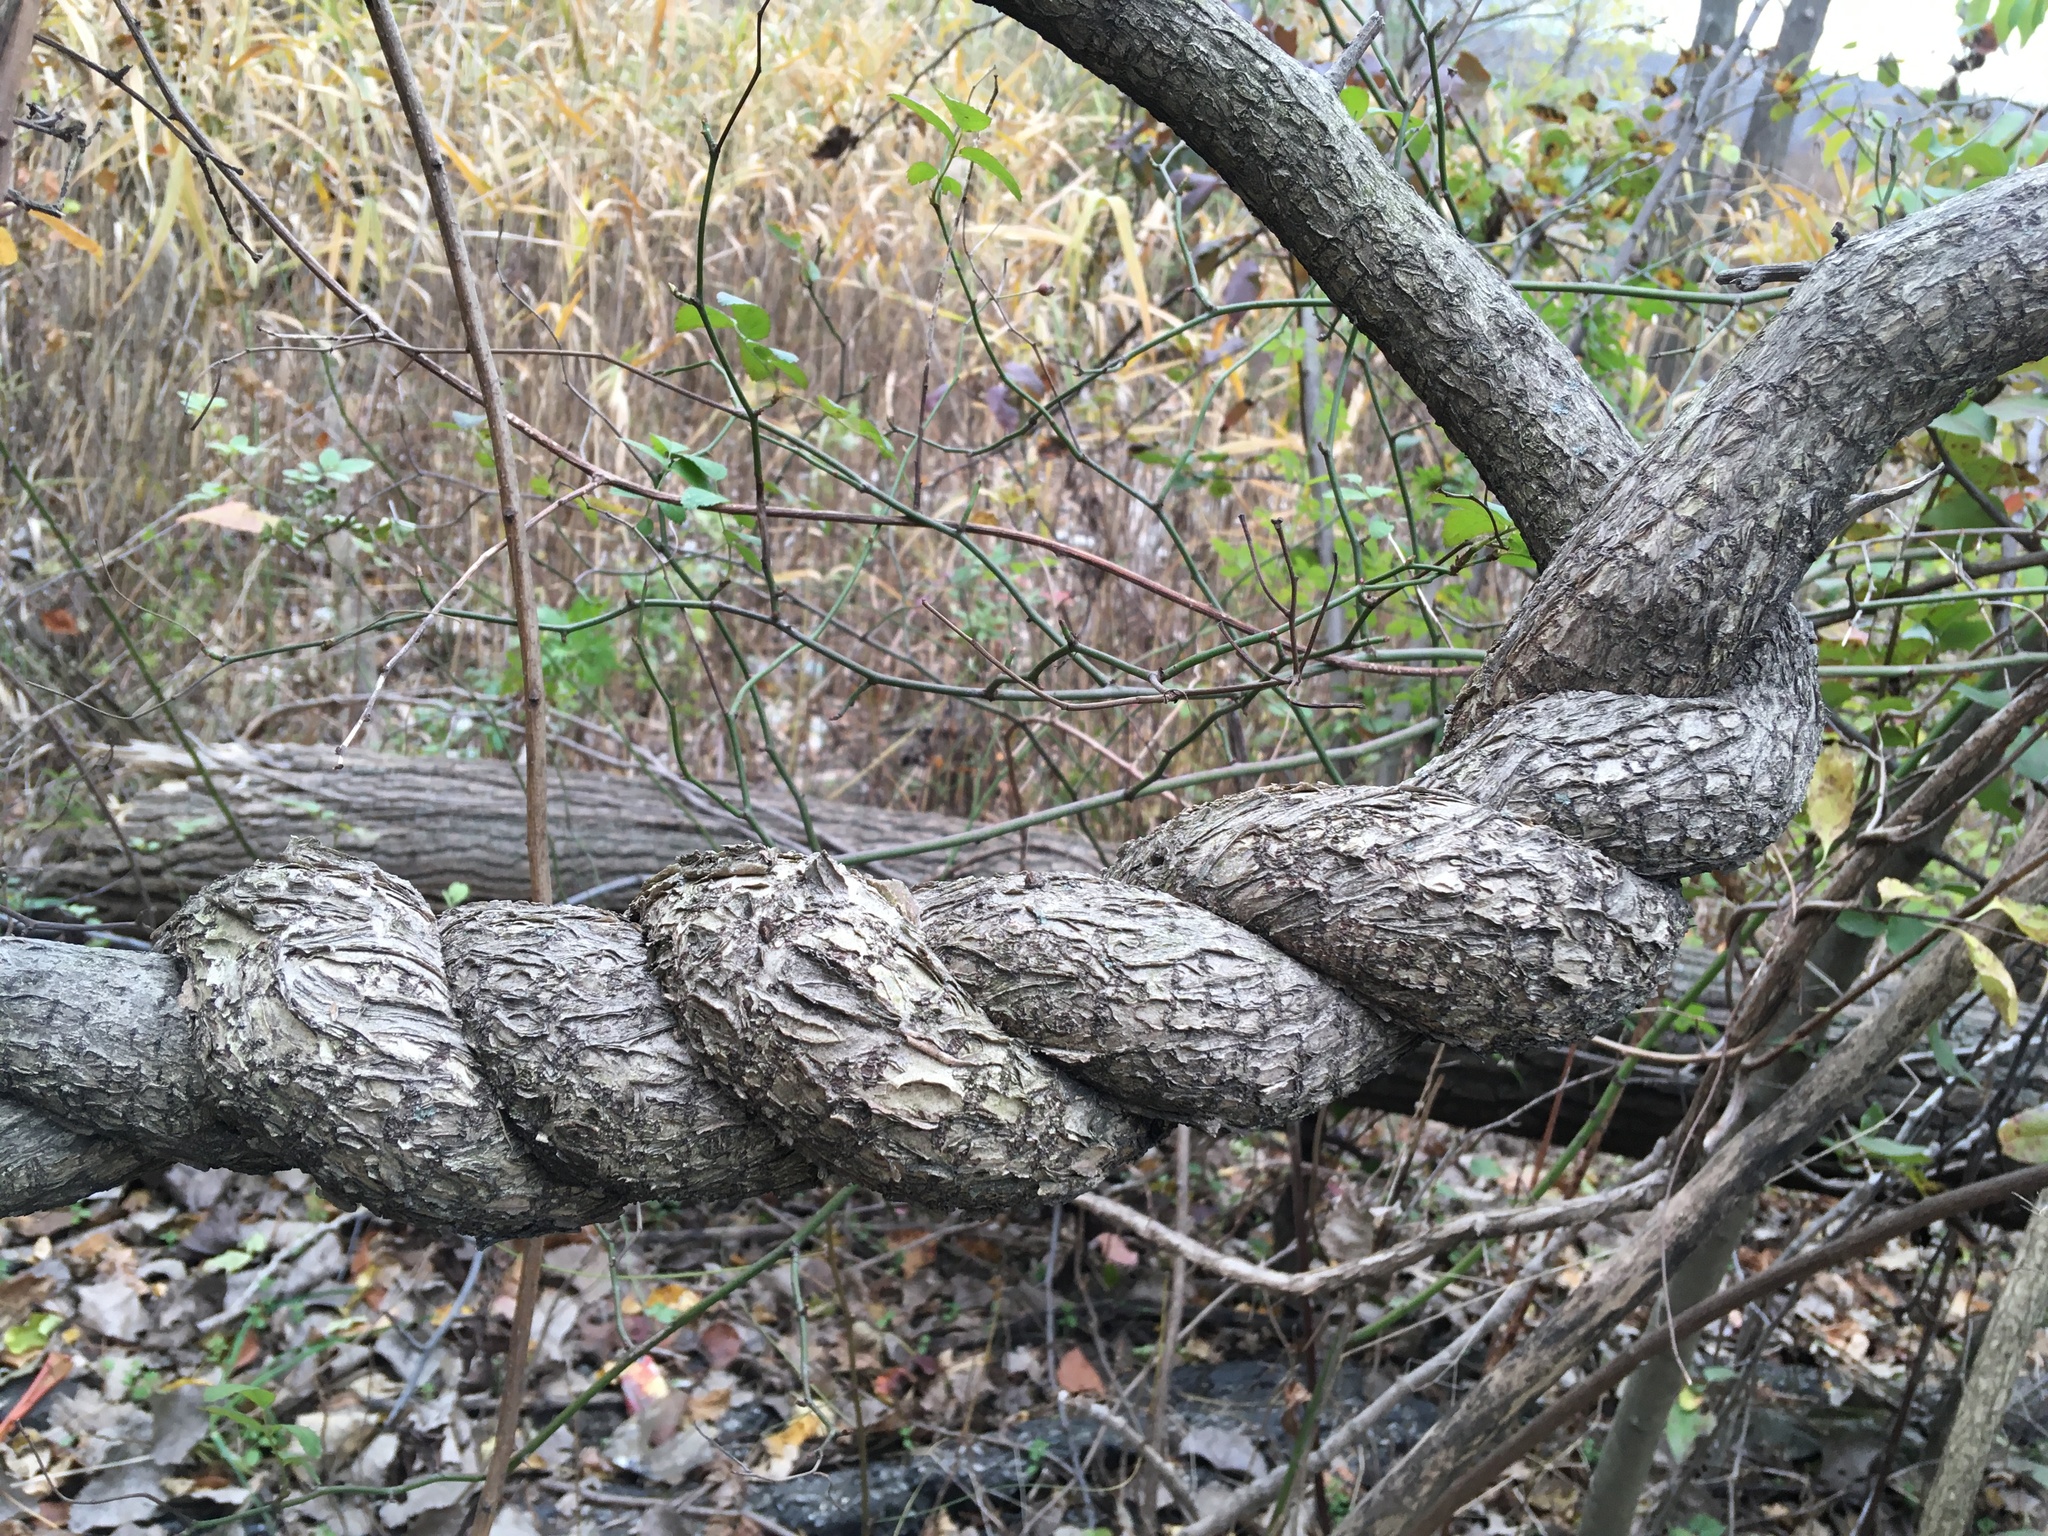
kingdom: Plantae
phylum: Tracheophyta
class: Magnoliopsida
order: Celastrales
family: Celastraceae
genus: Celastrus
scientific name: Celastrus orbiculatus
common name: Oriental bittersweet
